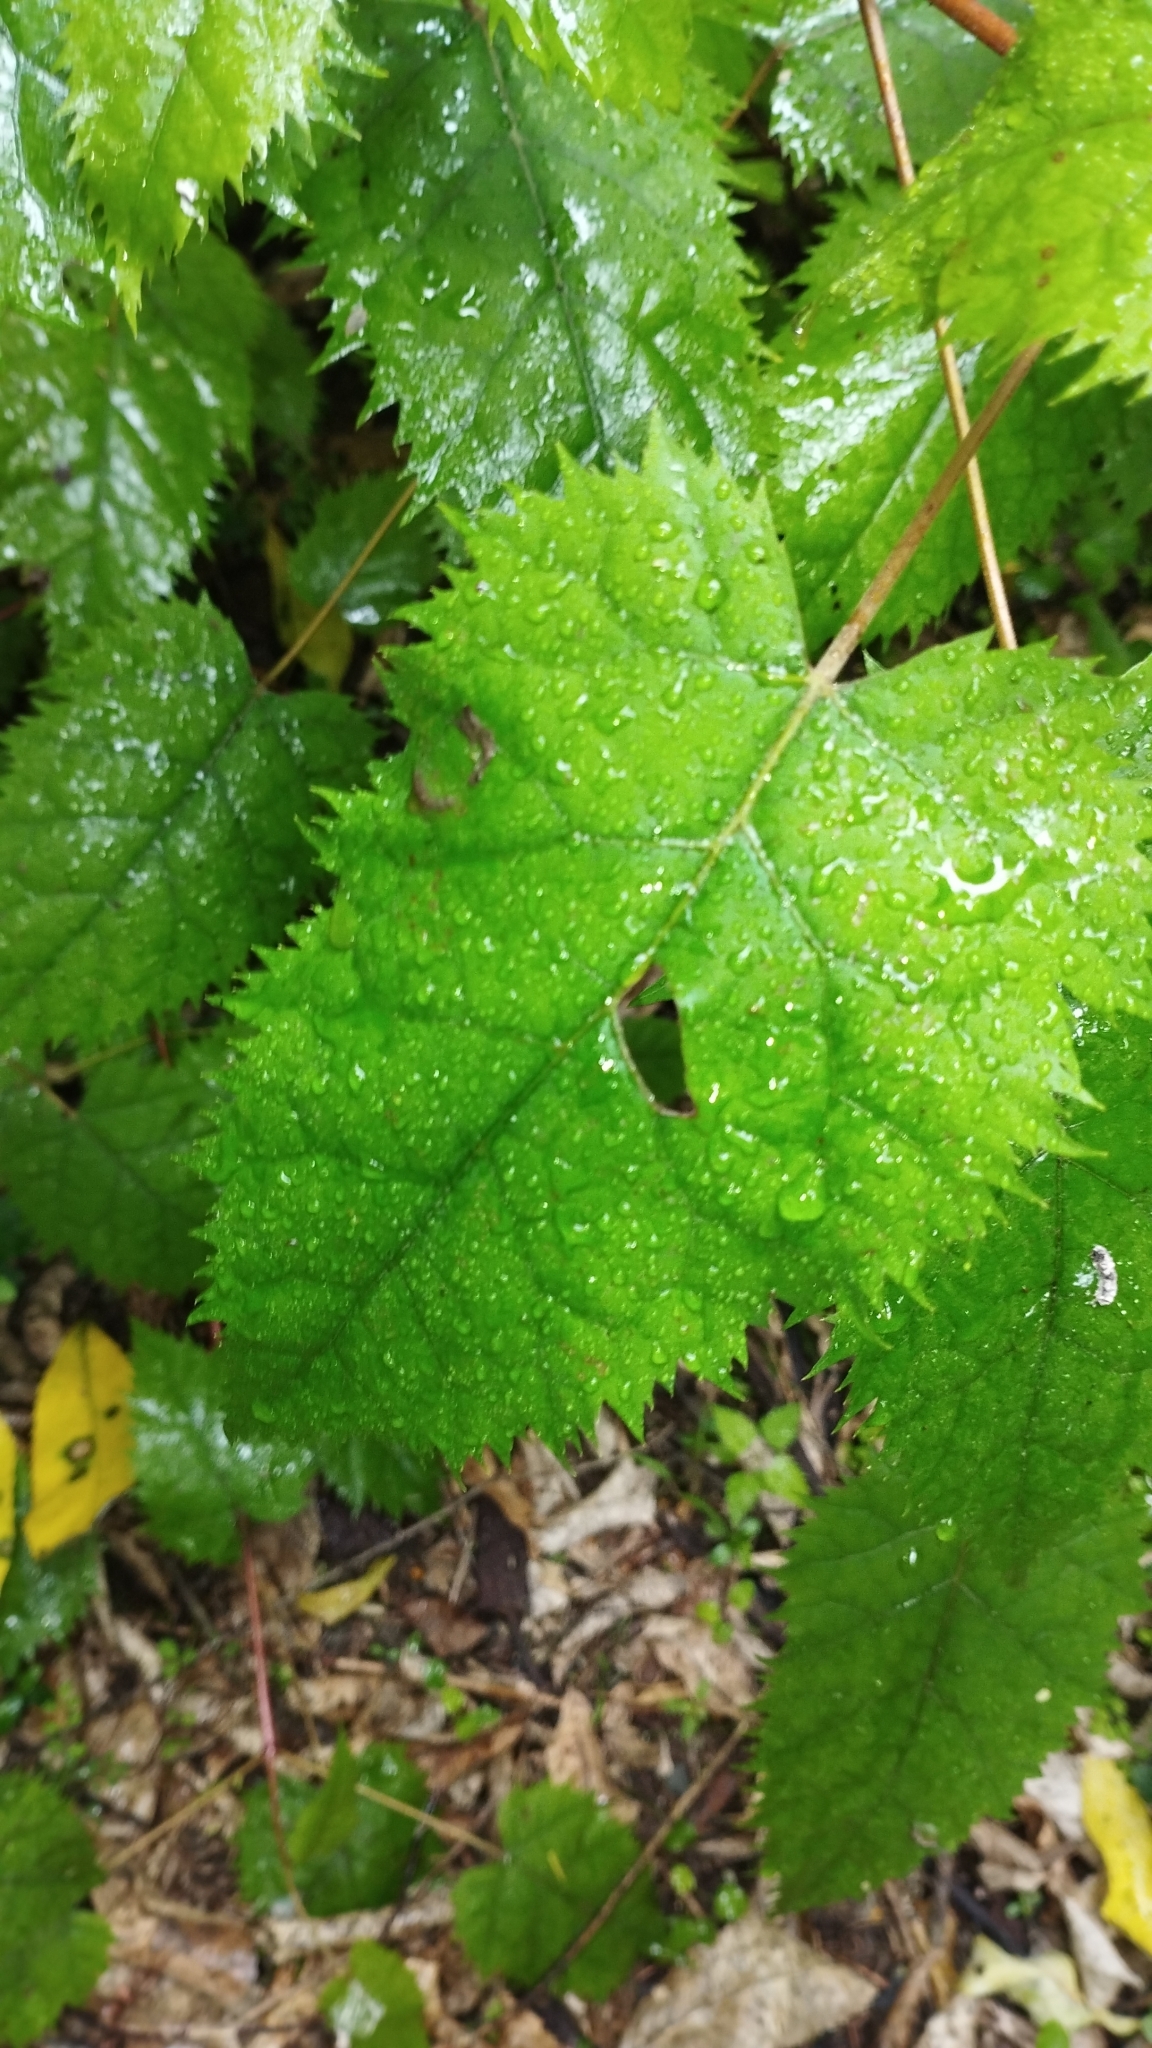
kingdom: Plantae
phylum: Tracheophyta
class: Magnoliopsida
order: Oxalidales
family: Elaeocarpaceae
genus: Aristotelia
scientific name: Aristotelia serrata
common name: New zealand wineberry
